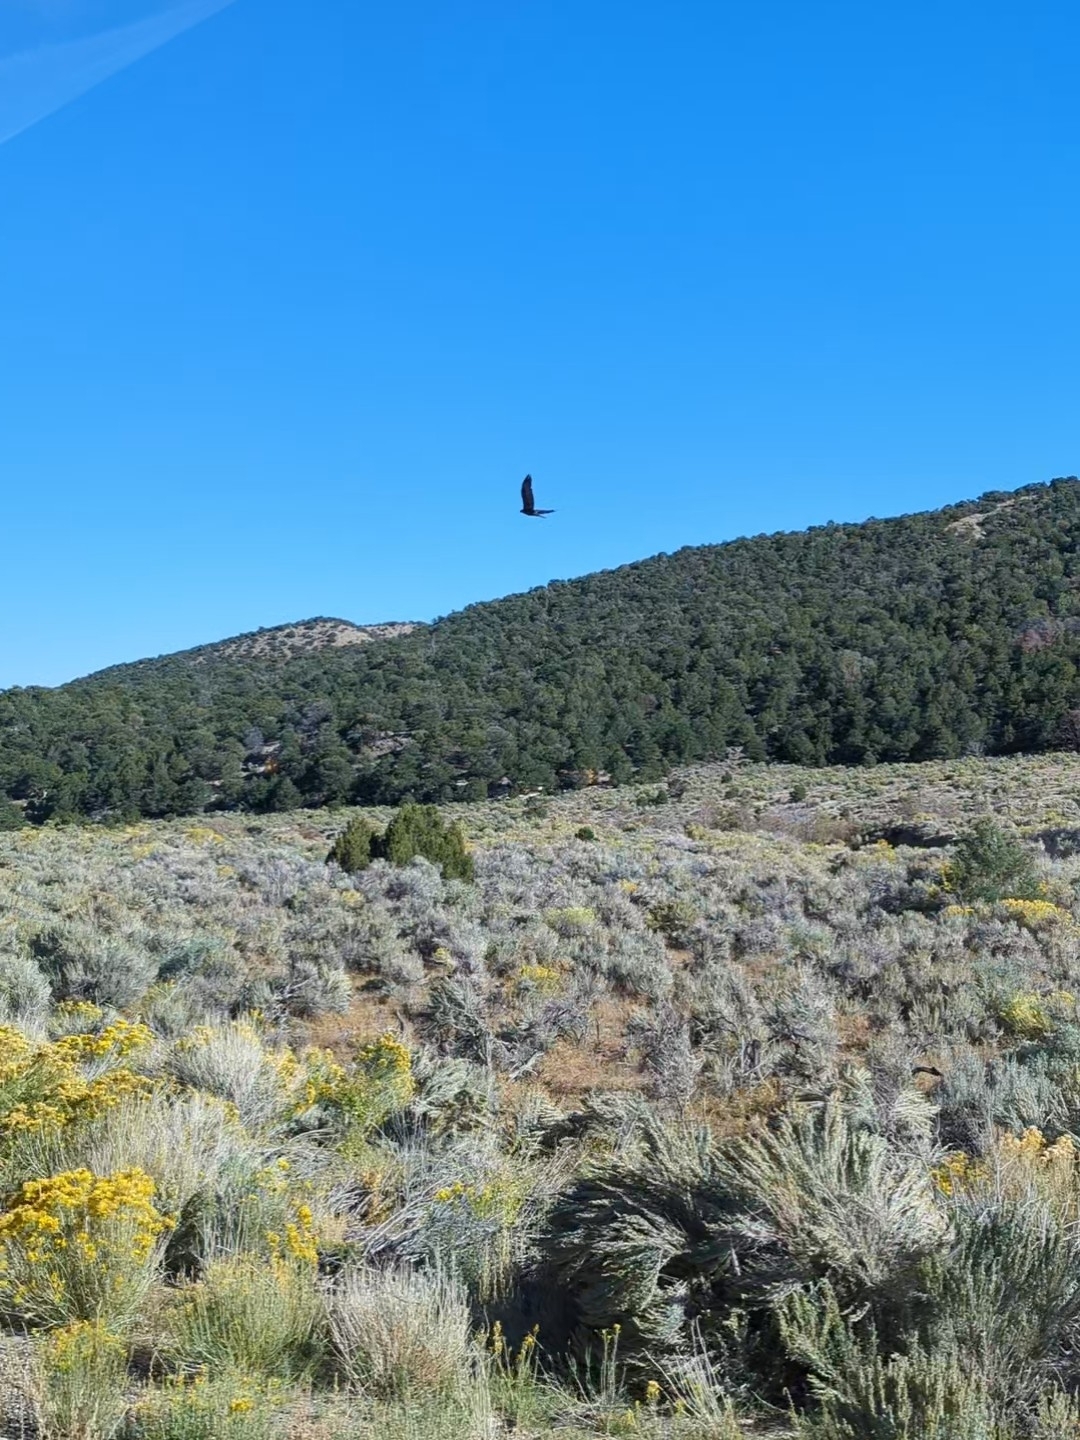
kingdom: Animalia
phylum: Chordata
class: Aves
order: Accipitriformes
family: Accipitridae
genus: Aquila
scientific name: Aquila chrysaetos
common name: Golden eagle
